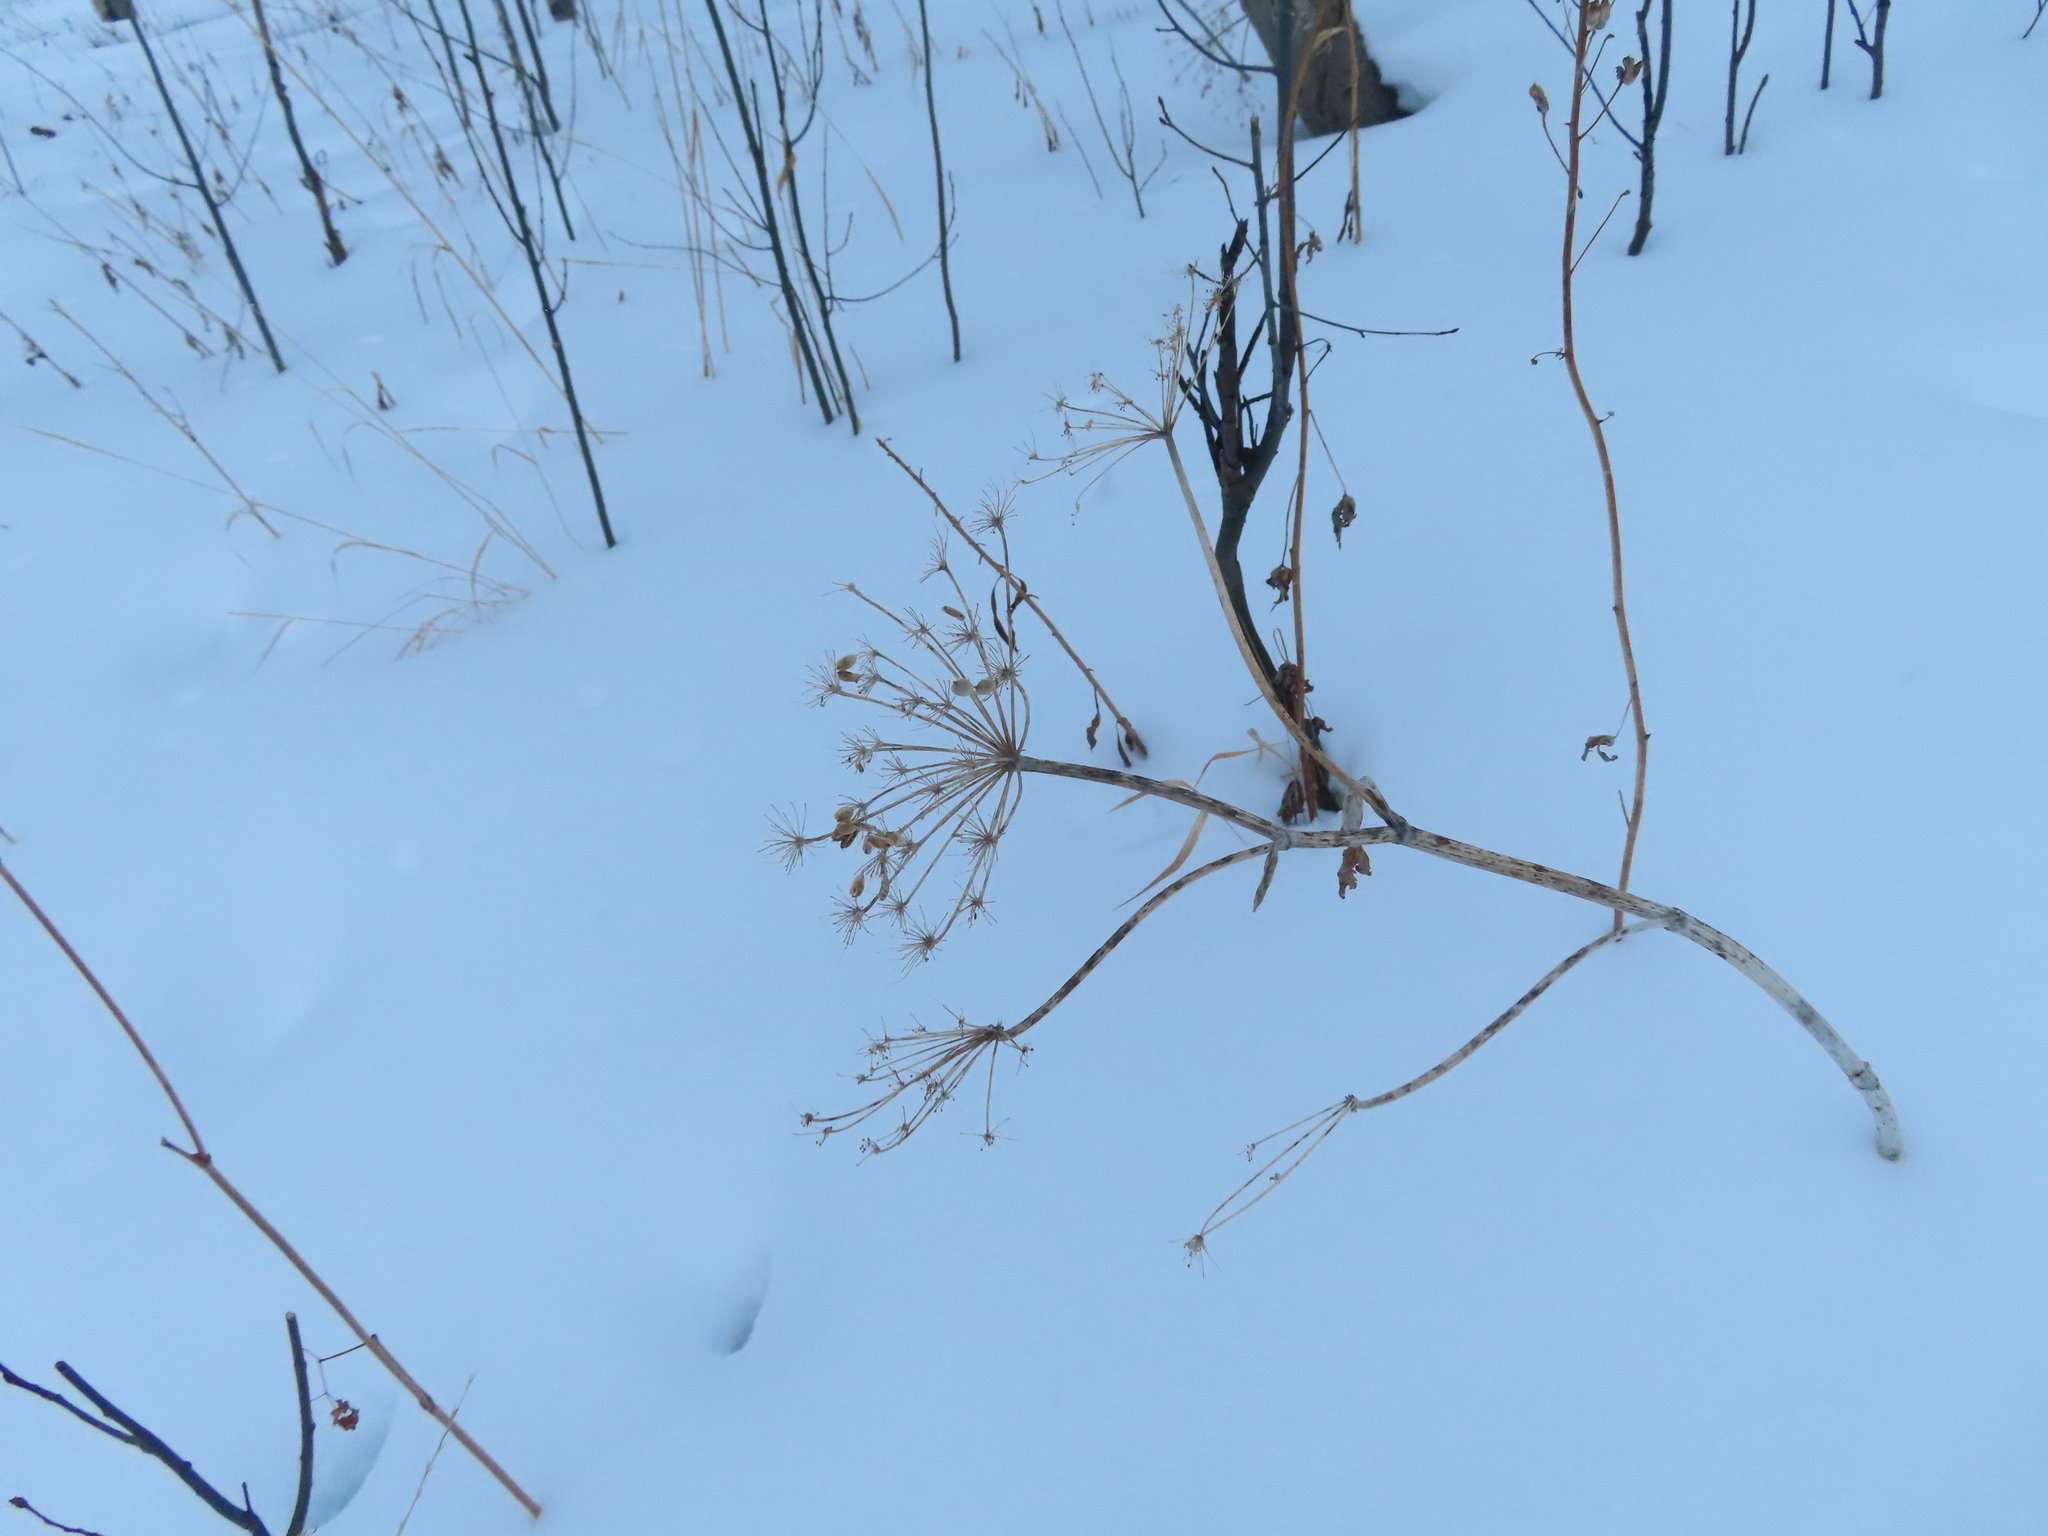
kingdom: Plantae
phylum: Tracheophyta
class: Magnoliopsida
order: Apiales
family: Apiaceae
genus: Heracleum
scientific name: Heracleum maximum
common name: American cow parsnip
